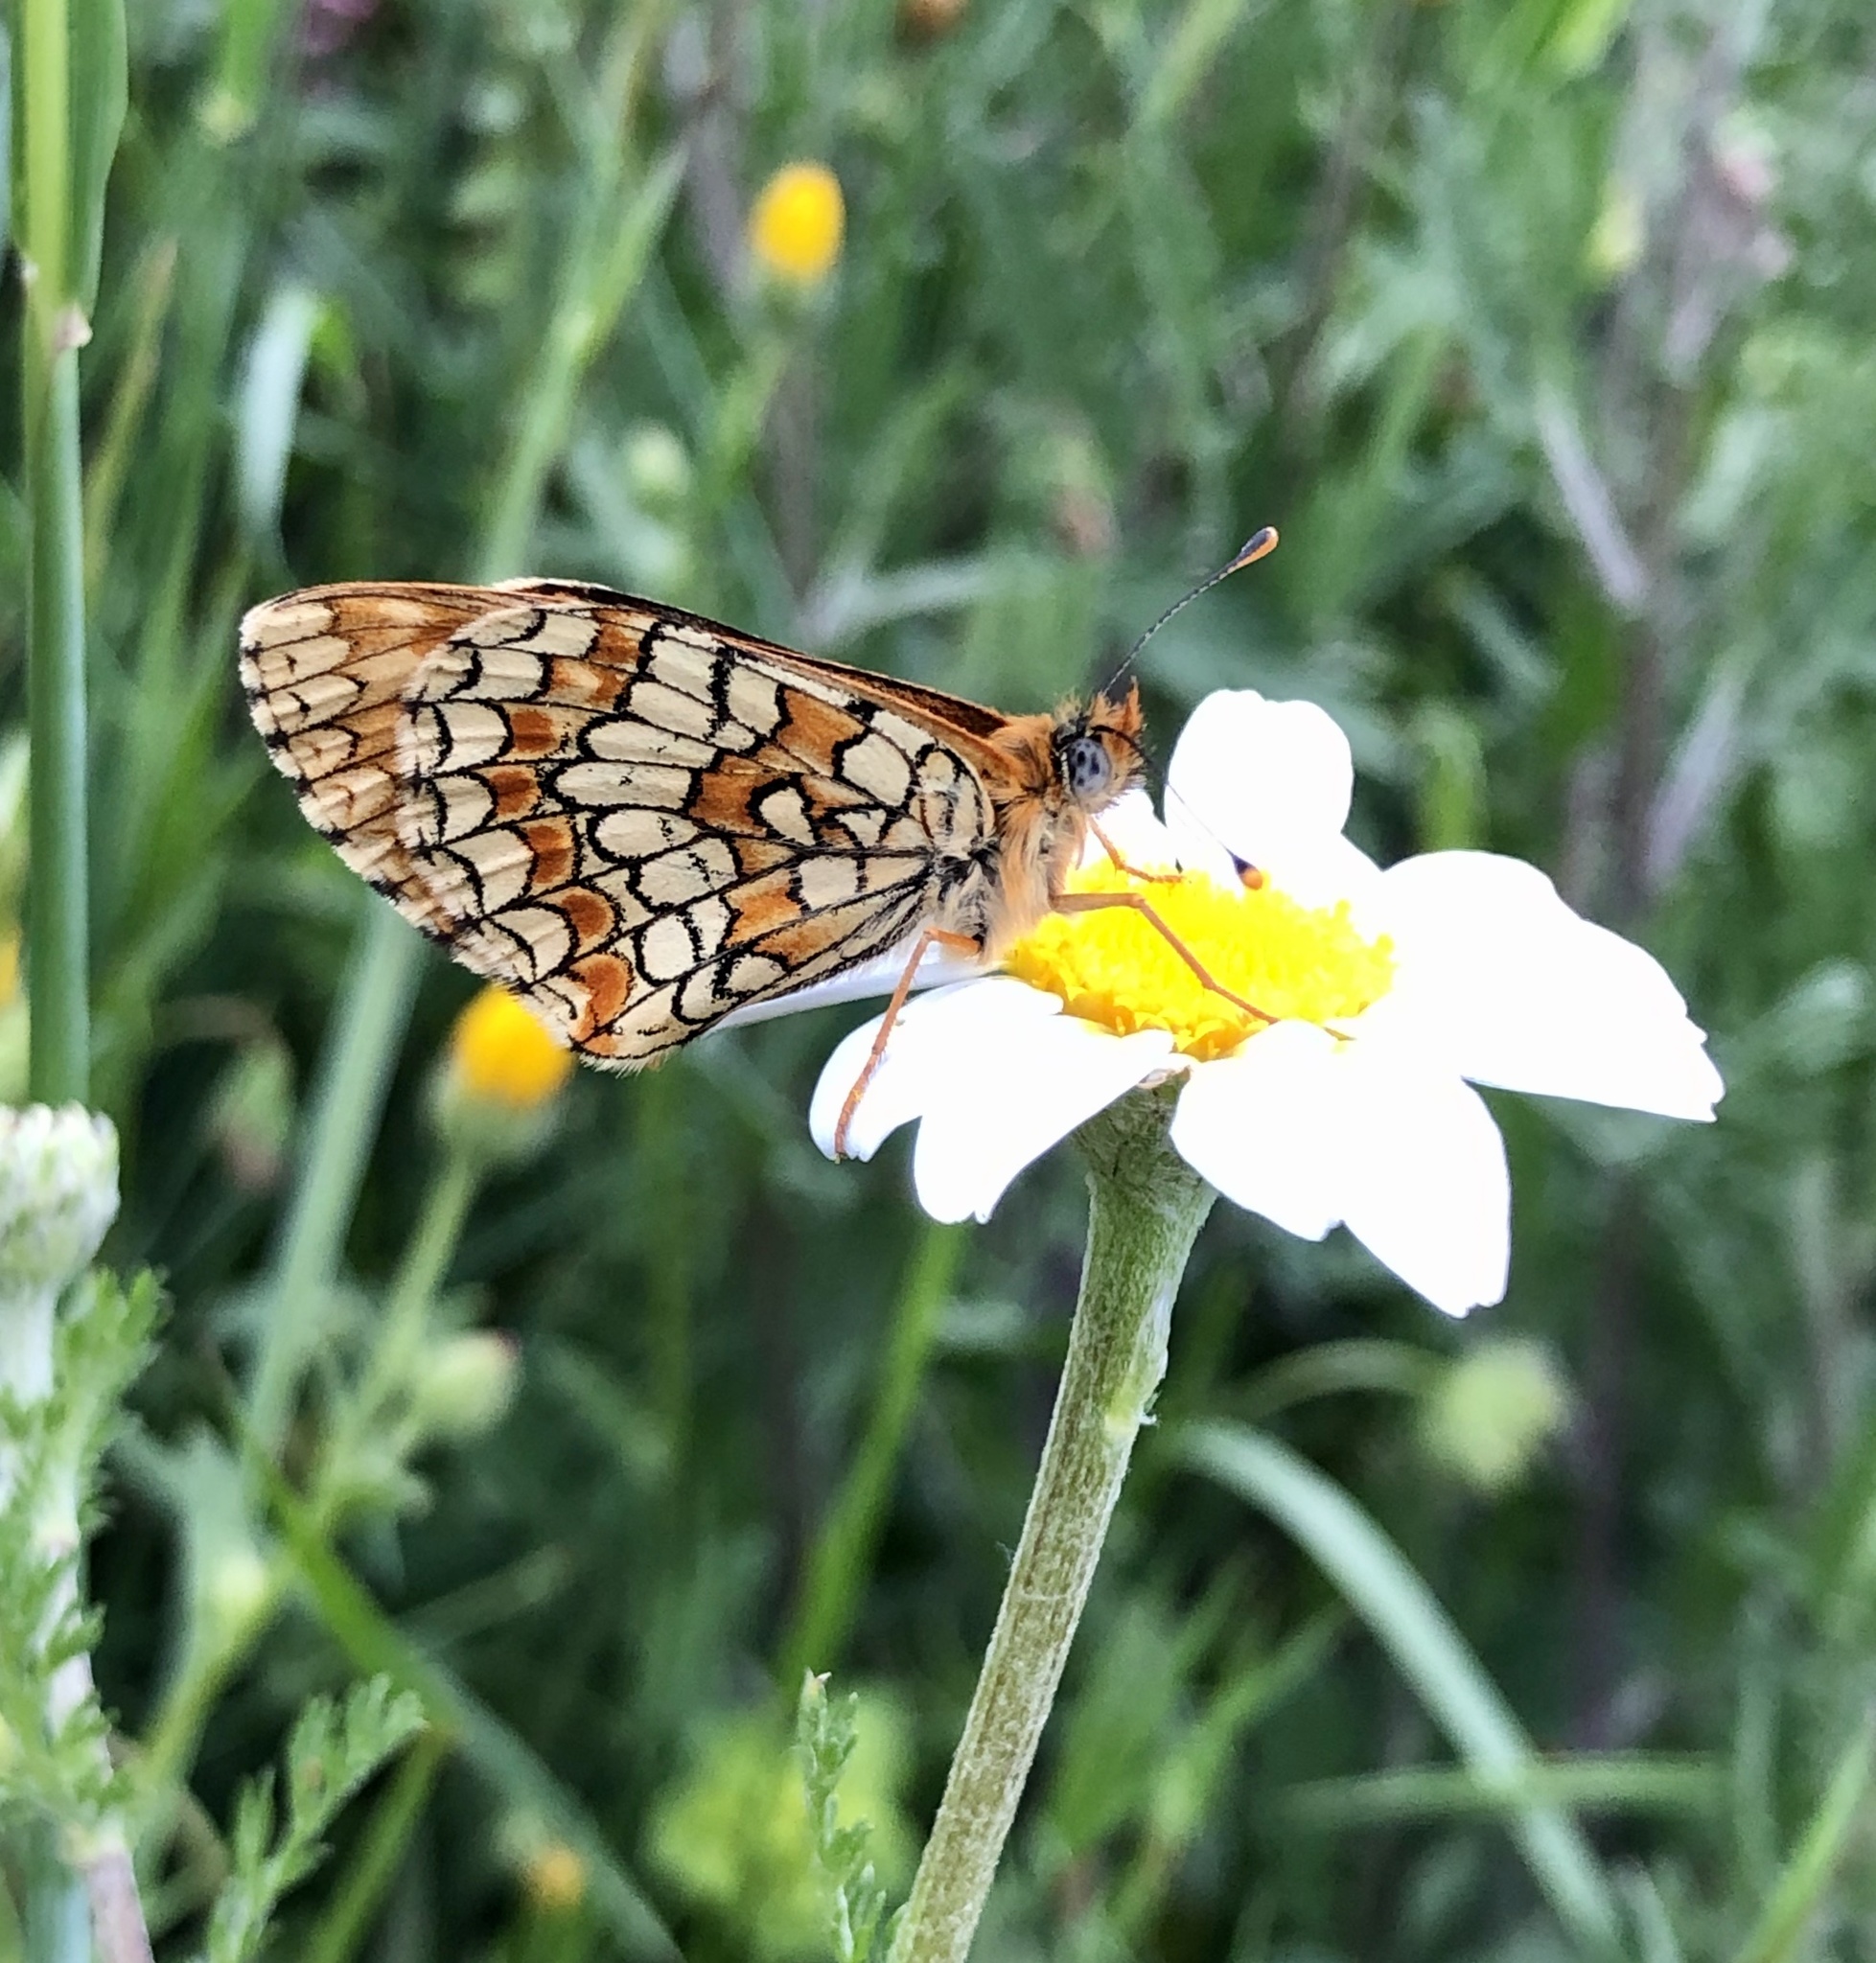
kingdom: Animalia
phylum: Arthropoda
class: Insecta
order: Lepidoptera
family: Nymphalidae
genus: Melitaea
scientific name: Melitaea deione
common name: Provençal fritillary
